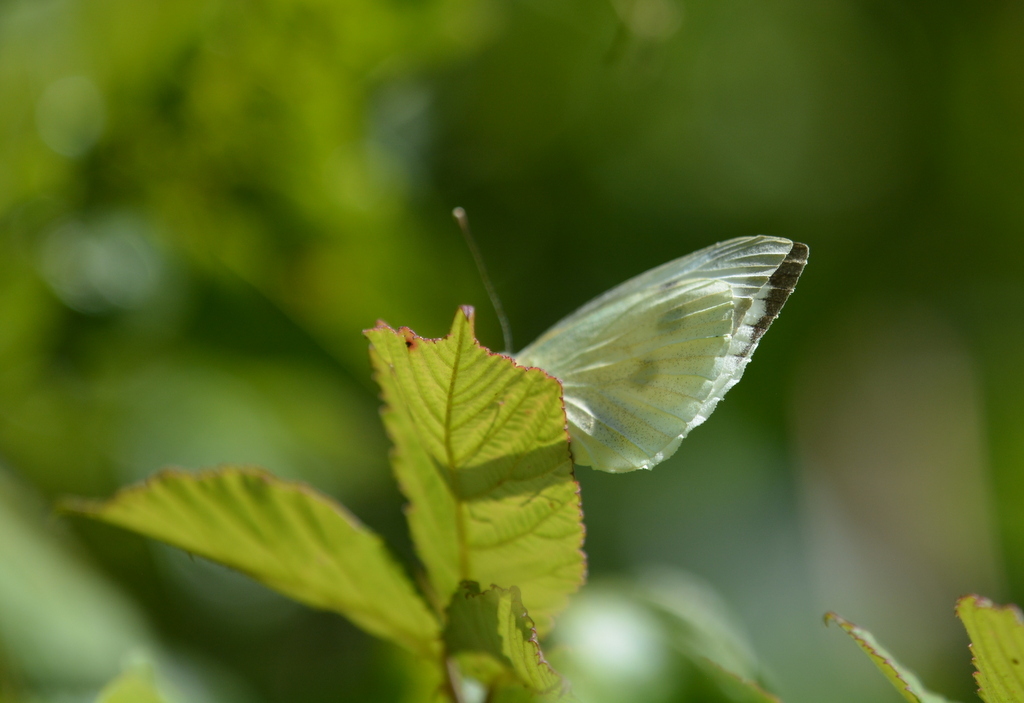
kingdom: Animalia
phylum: Arthropoda
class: Insecta
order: Lepidoptera
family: Pieridae
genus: Pieris
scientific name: Pieris brassicae
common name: Large white
